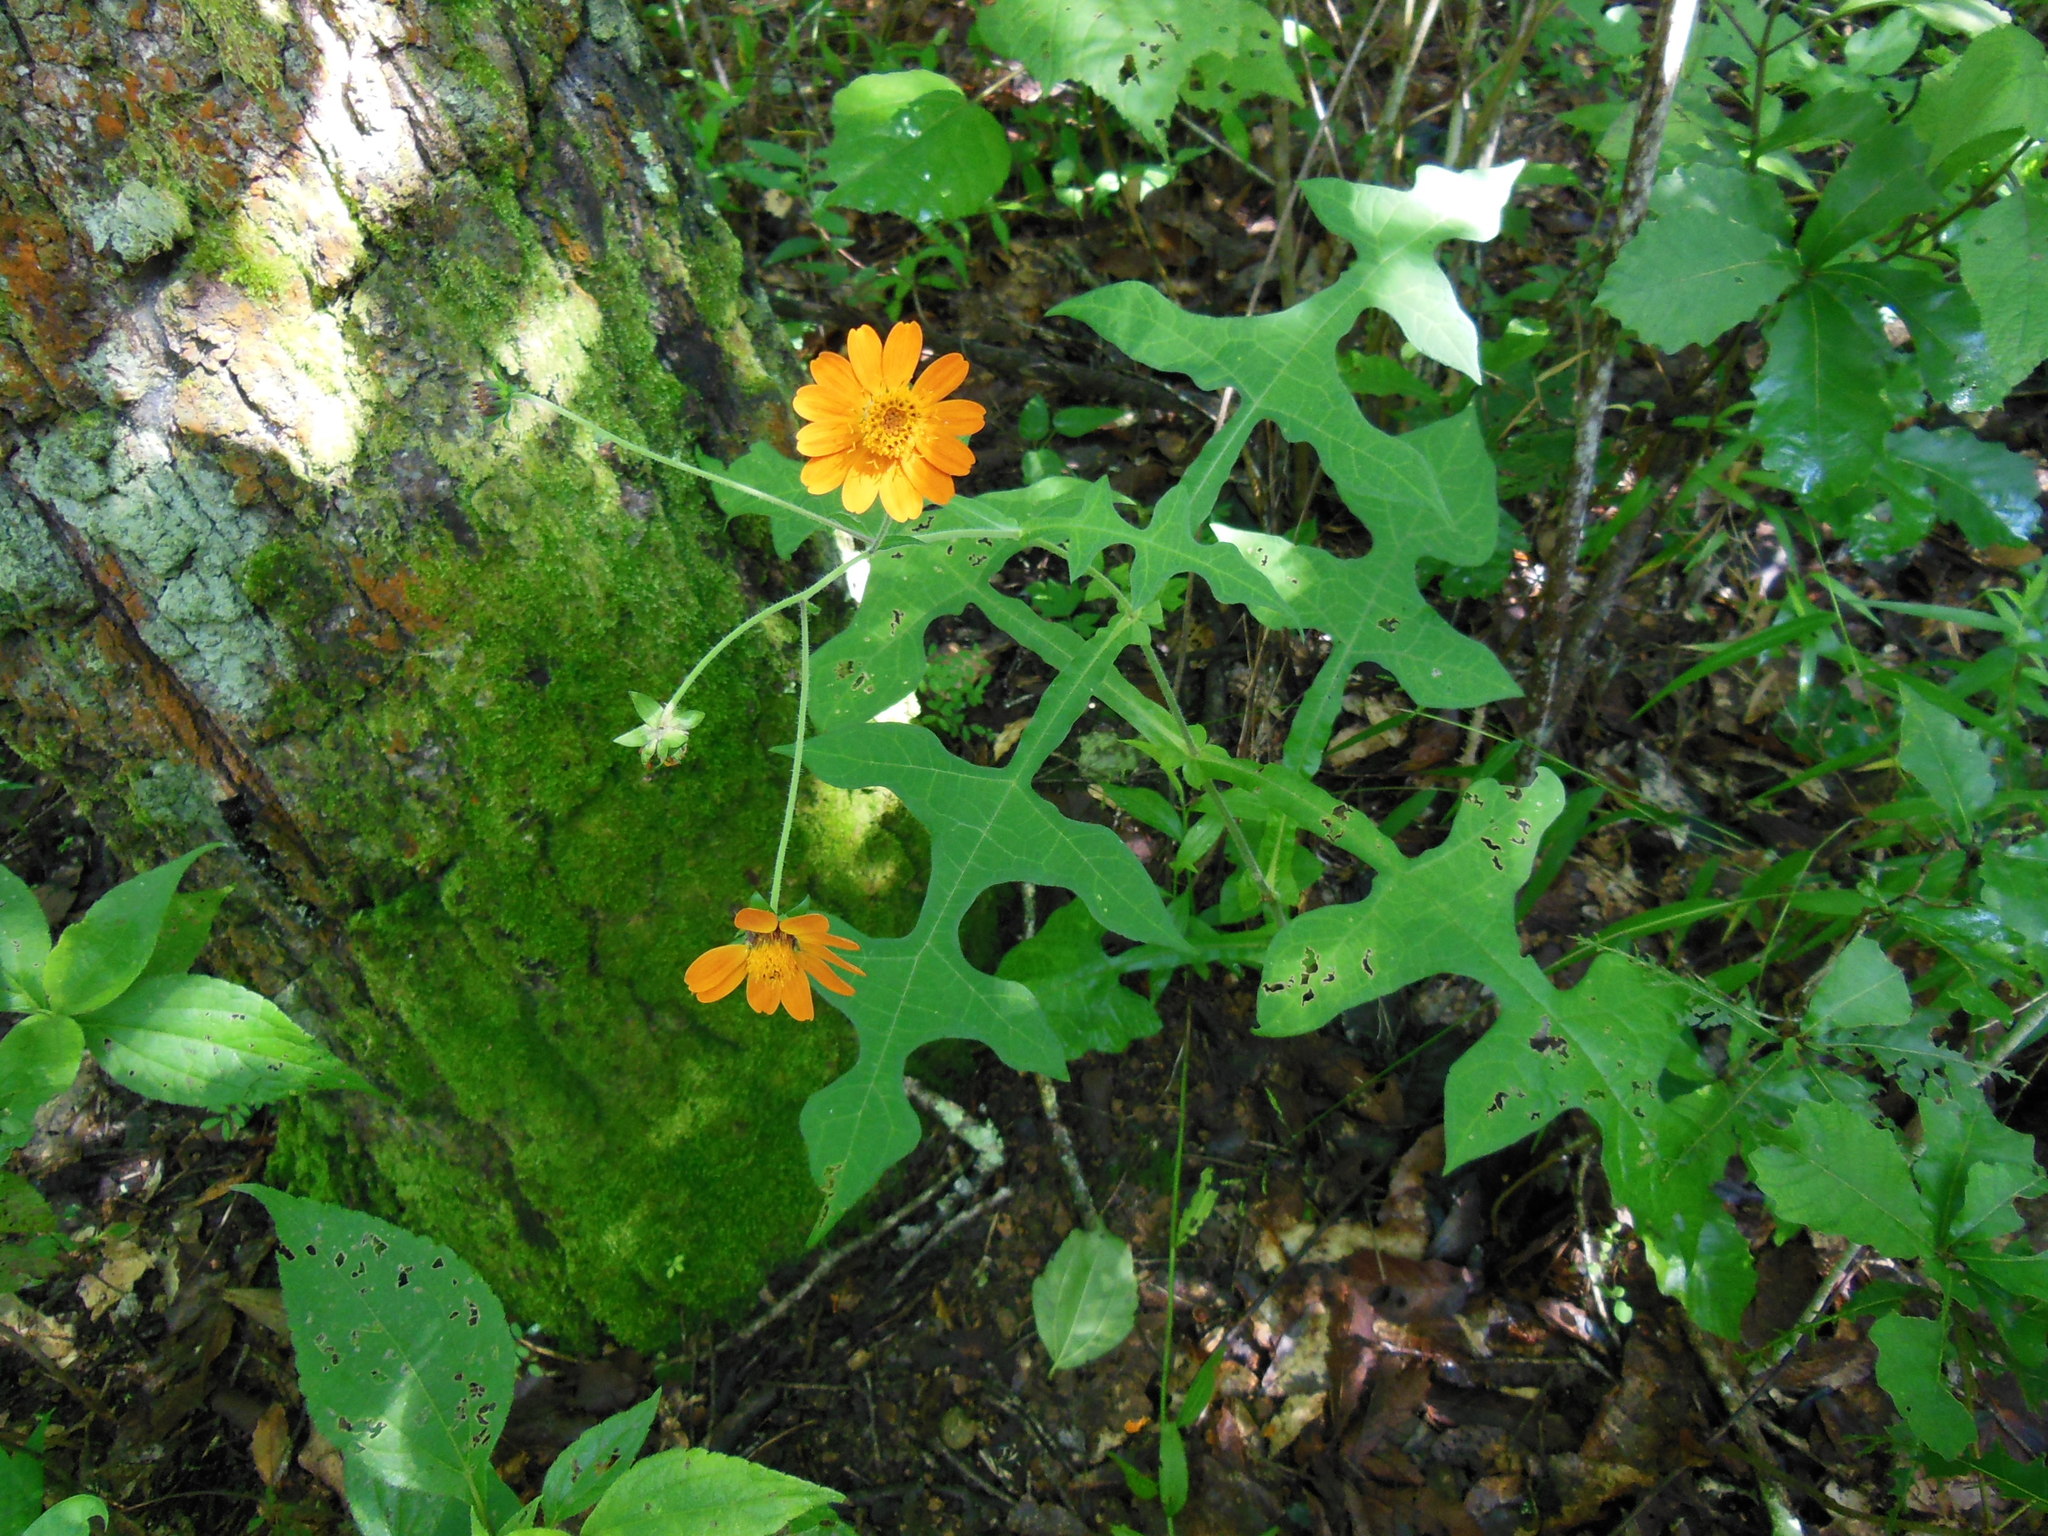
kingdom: Plantae
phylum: Tracheophyta
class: Magnoliopsida
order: Asterales
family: Asteraceae
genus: Smallanthus
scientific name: Smallanthus oaxacanus
